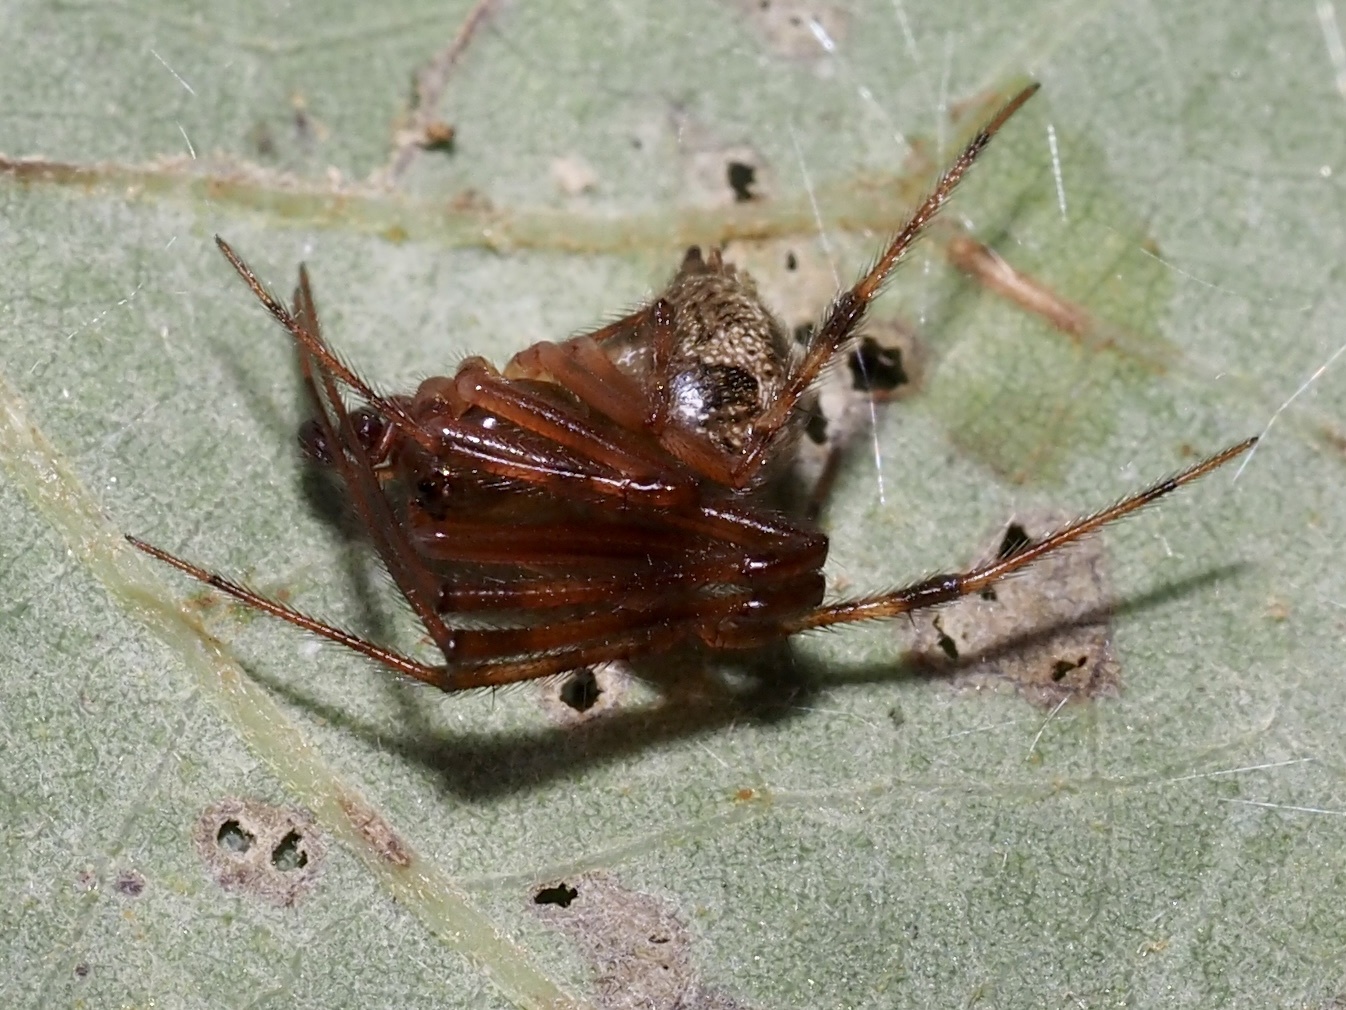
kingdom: Animalia
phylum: Arthropoda
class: Arachnida
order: Araneae
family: Theridiidae
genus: Parasteatoda
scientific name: Parasteatoda tepidariorum
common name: Common house spider
